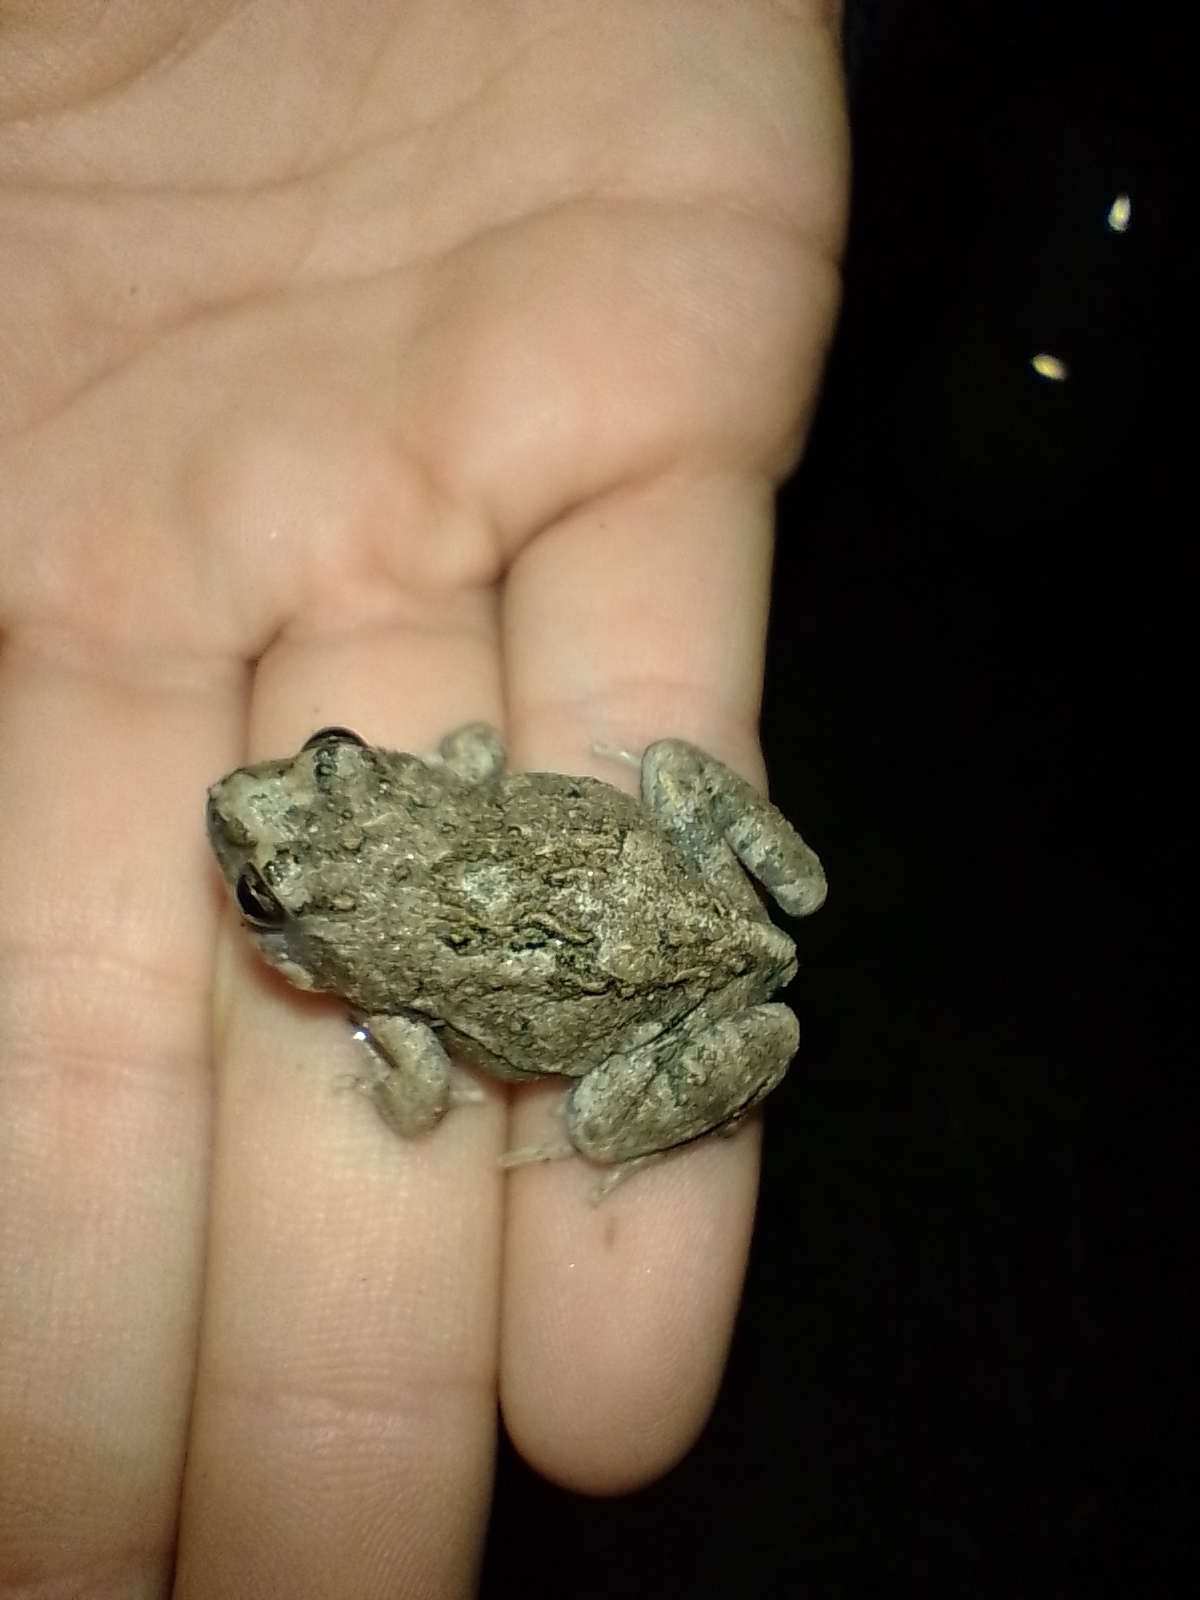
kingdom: Animalia
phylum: Chordata
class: Amphibia
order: Anura
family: Leptodactylidae
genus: Physalaemus
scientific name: Physalaemus biligonigerus
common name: Weeping frog
